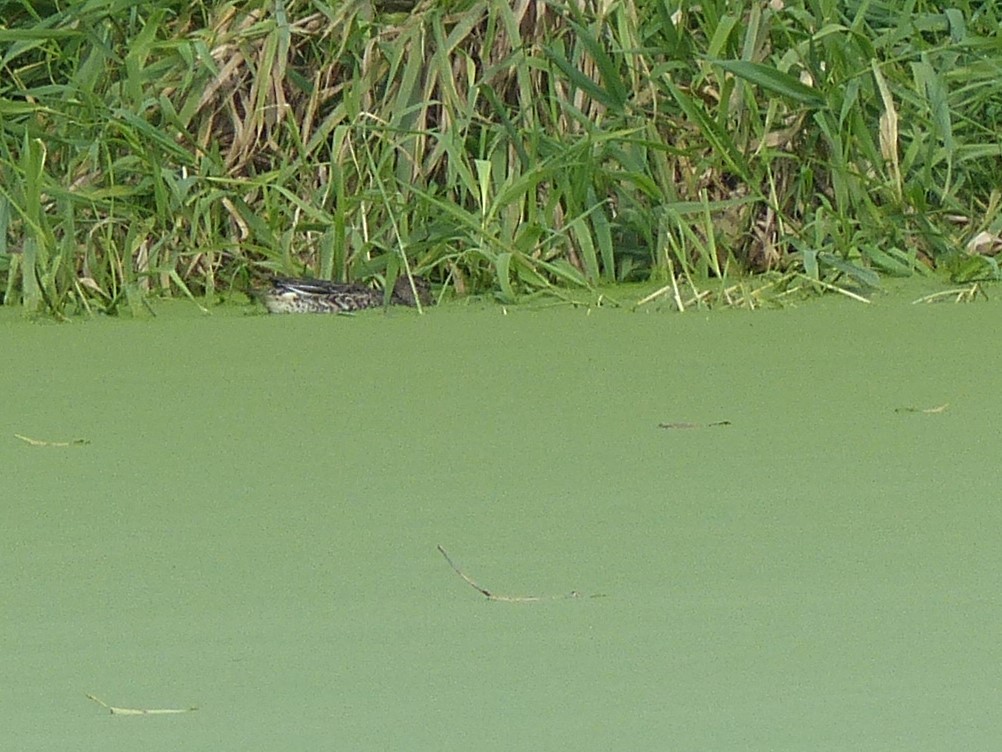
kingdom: Animalia
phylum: Chordata
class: Aves
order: Anseriformes
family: Anatidae
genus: Anas
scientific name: Anas crecca
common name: Eurasian teal
